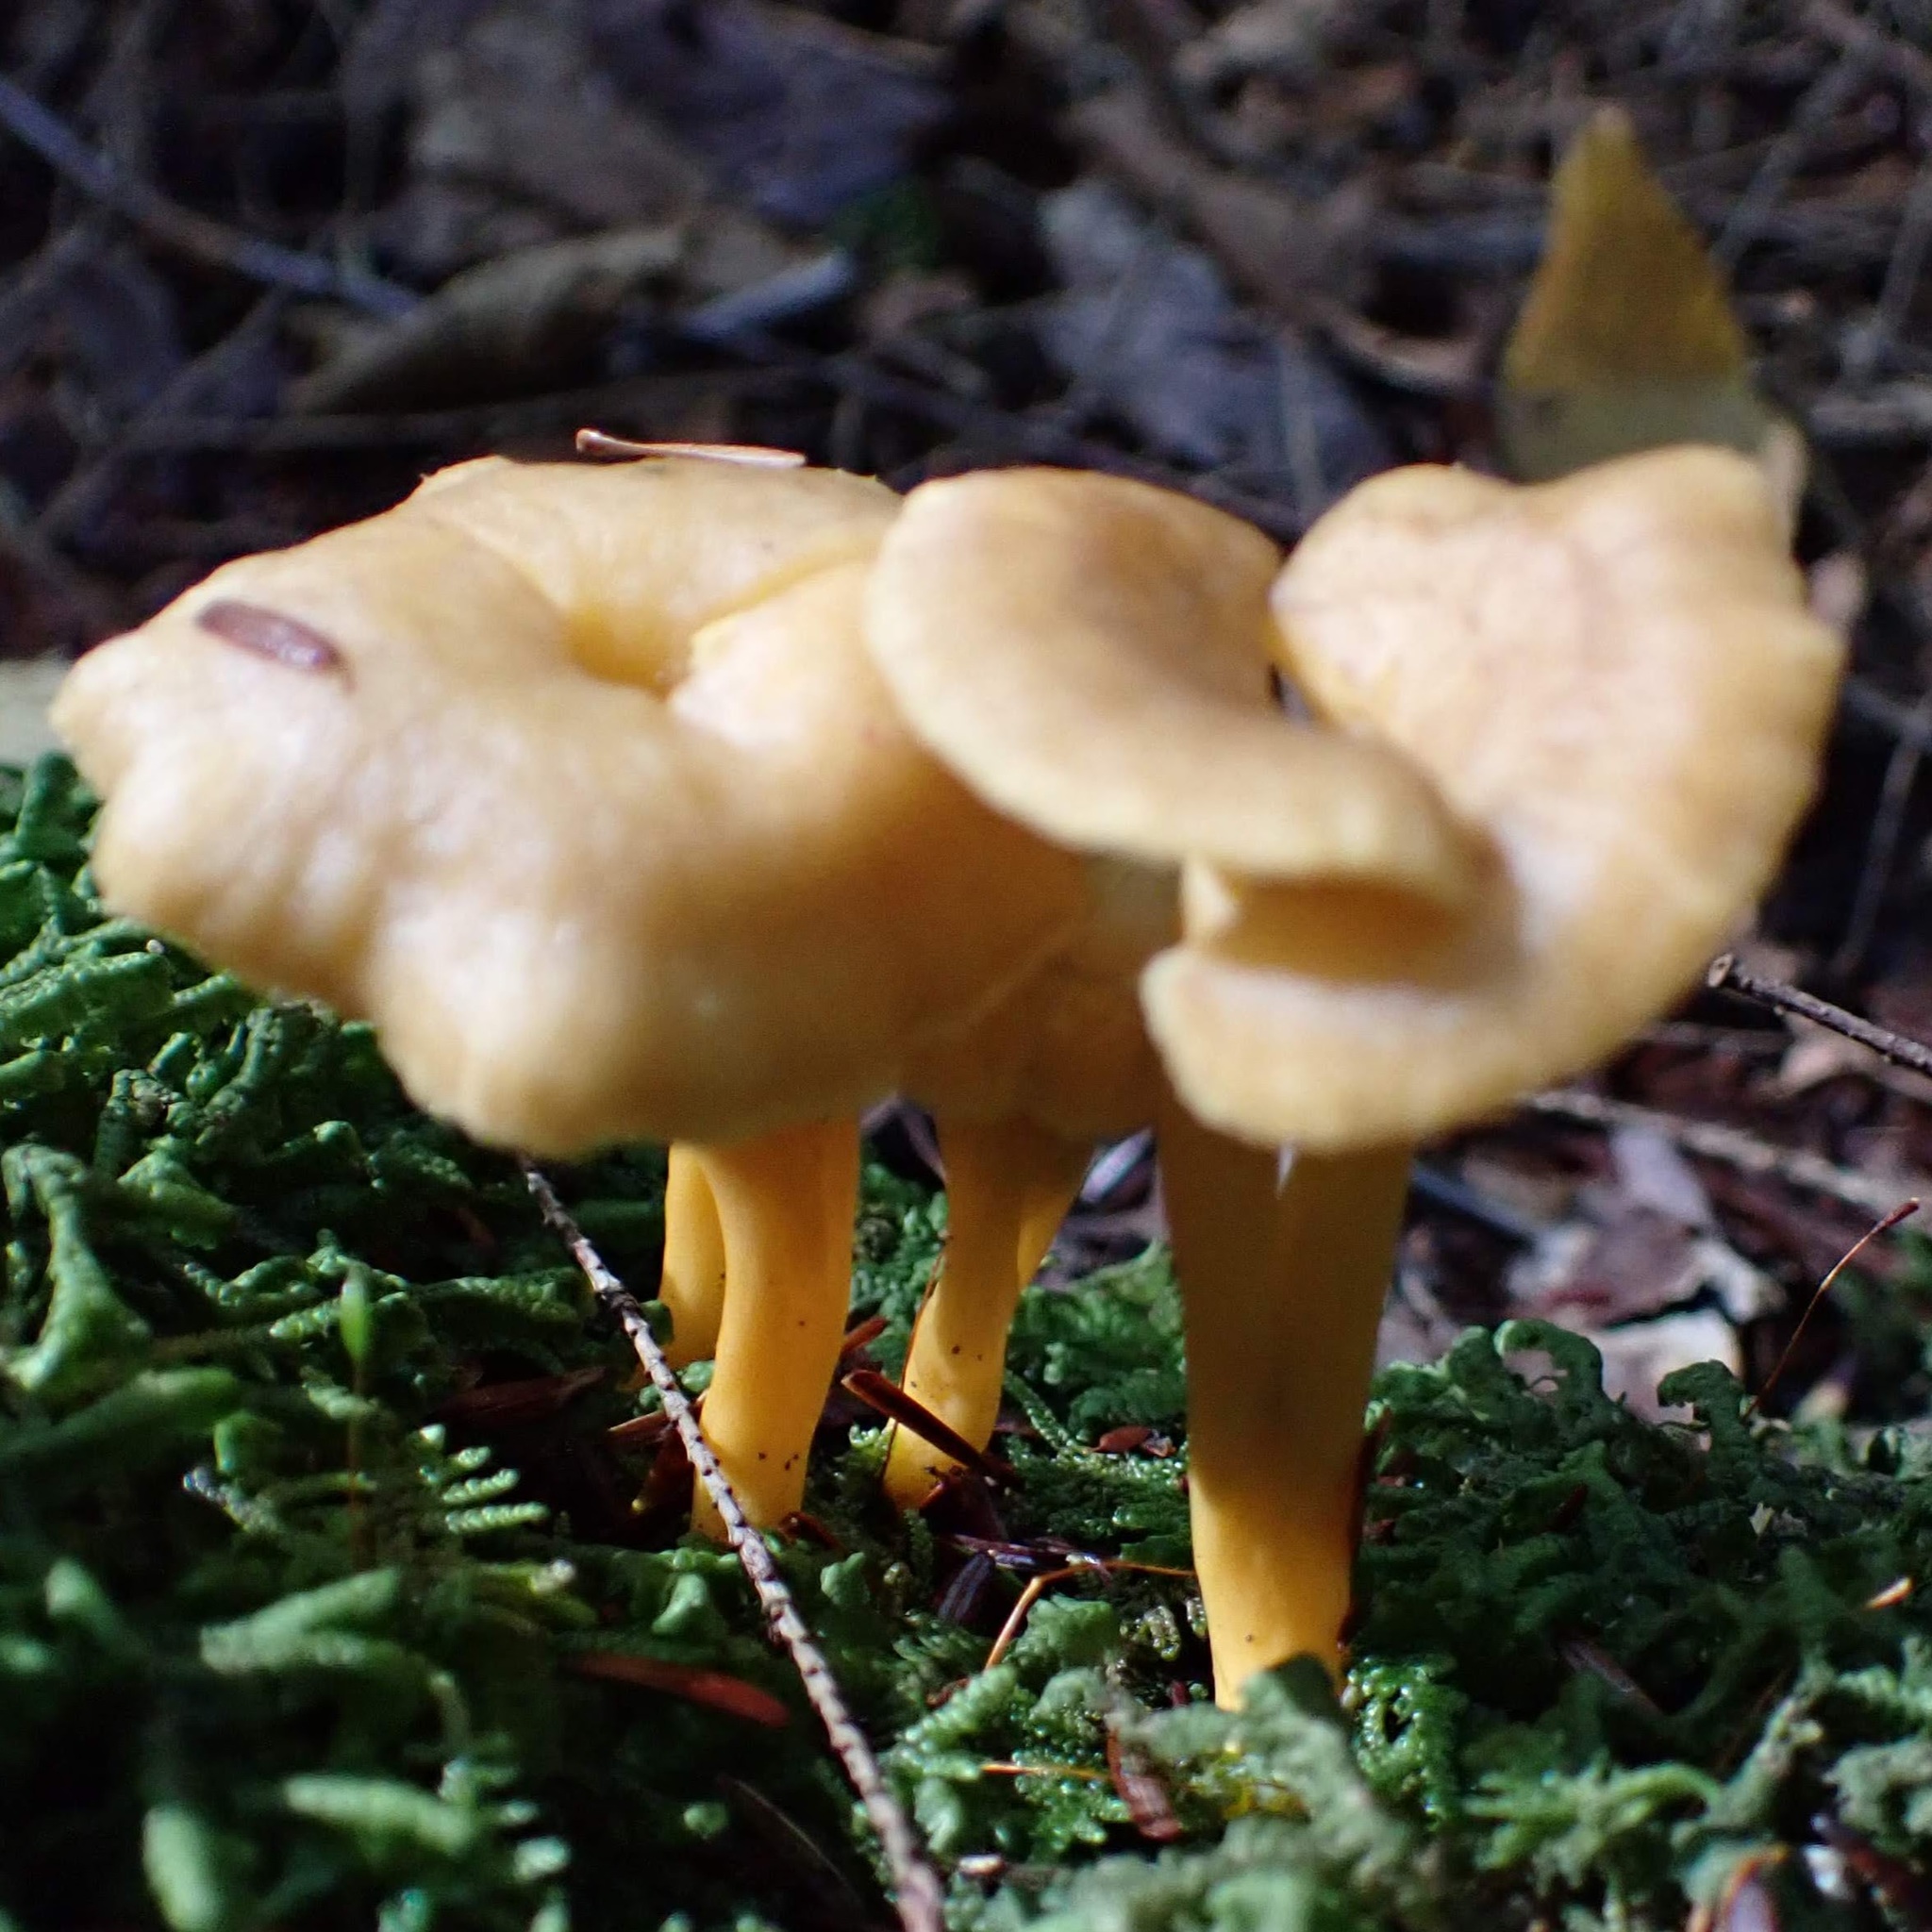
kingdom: Fungi
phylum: Basidiomycota
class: Agaricomycetes
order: Cantharellales
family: Hydnaceae
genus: Craterellus
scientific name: Craterellus tubaeformis
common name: Yellowfoot
